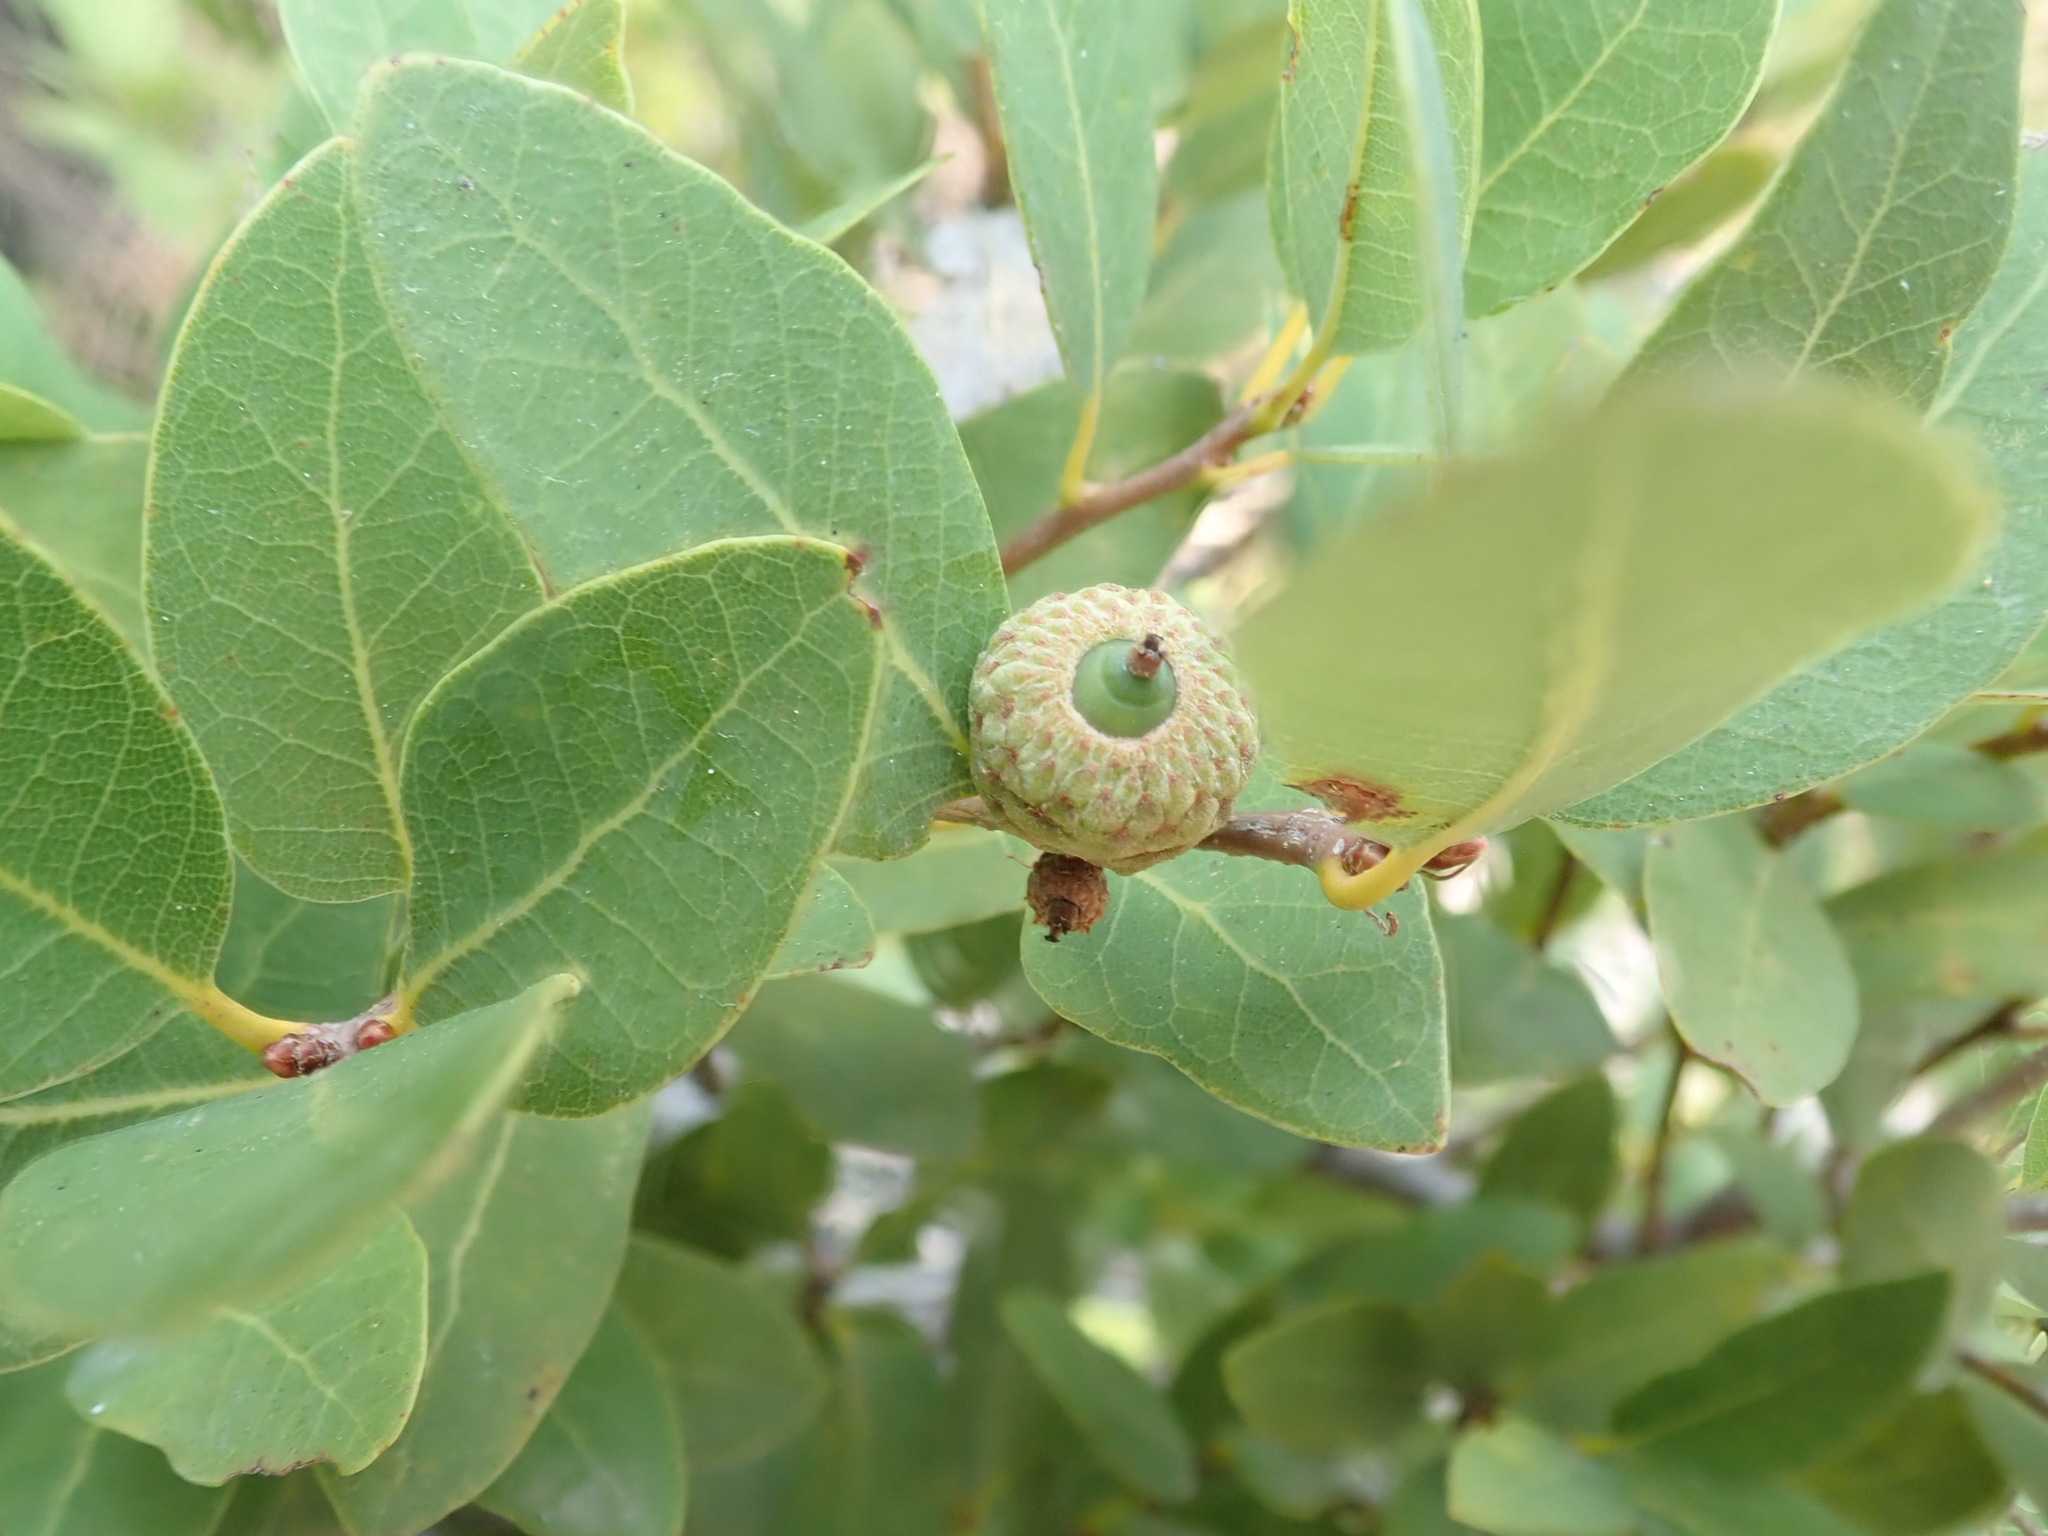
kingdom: Plantae
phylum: Tracheophyta
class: Magnoliopsida
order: Fagales
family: Fagaceae
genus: Quercus
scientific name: Quercus vacciniifolia
